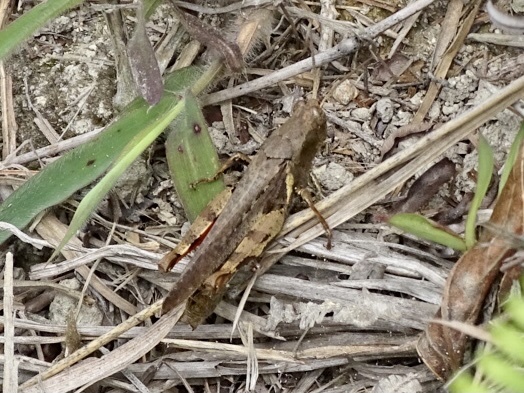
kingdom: Animalia
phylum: Arthropoda
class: Insecta
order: Orthoptera
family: Acrididae
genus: Xenocatantops
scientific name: Xenocatantops humile
